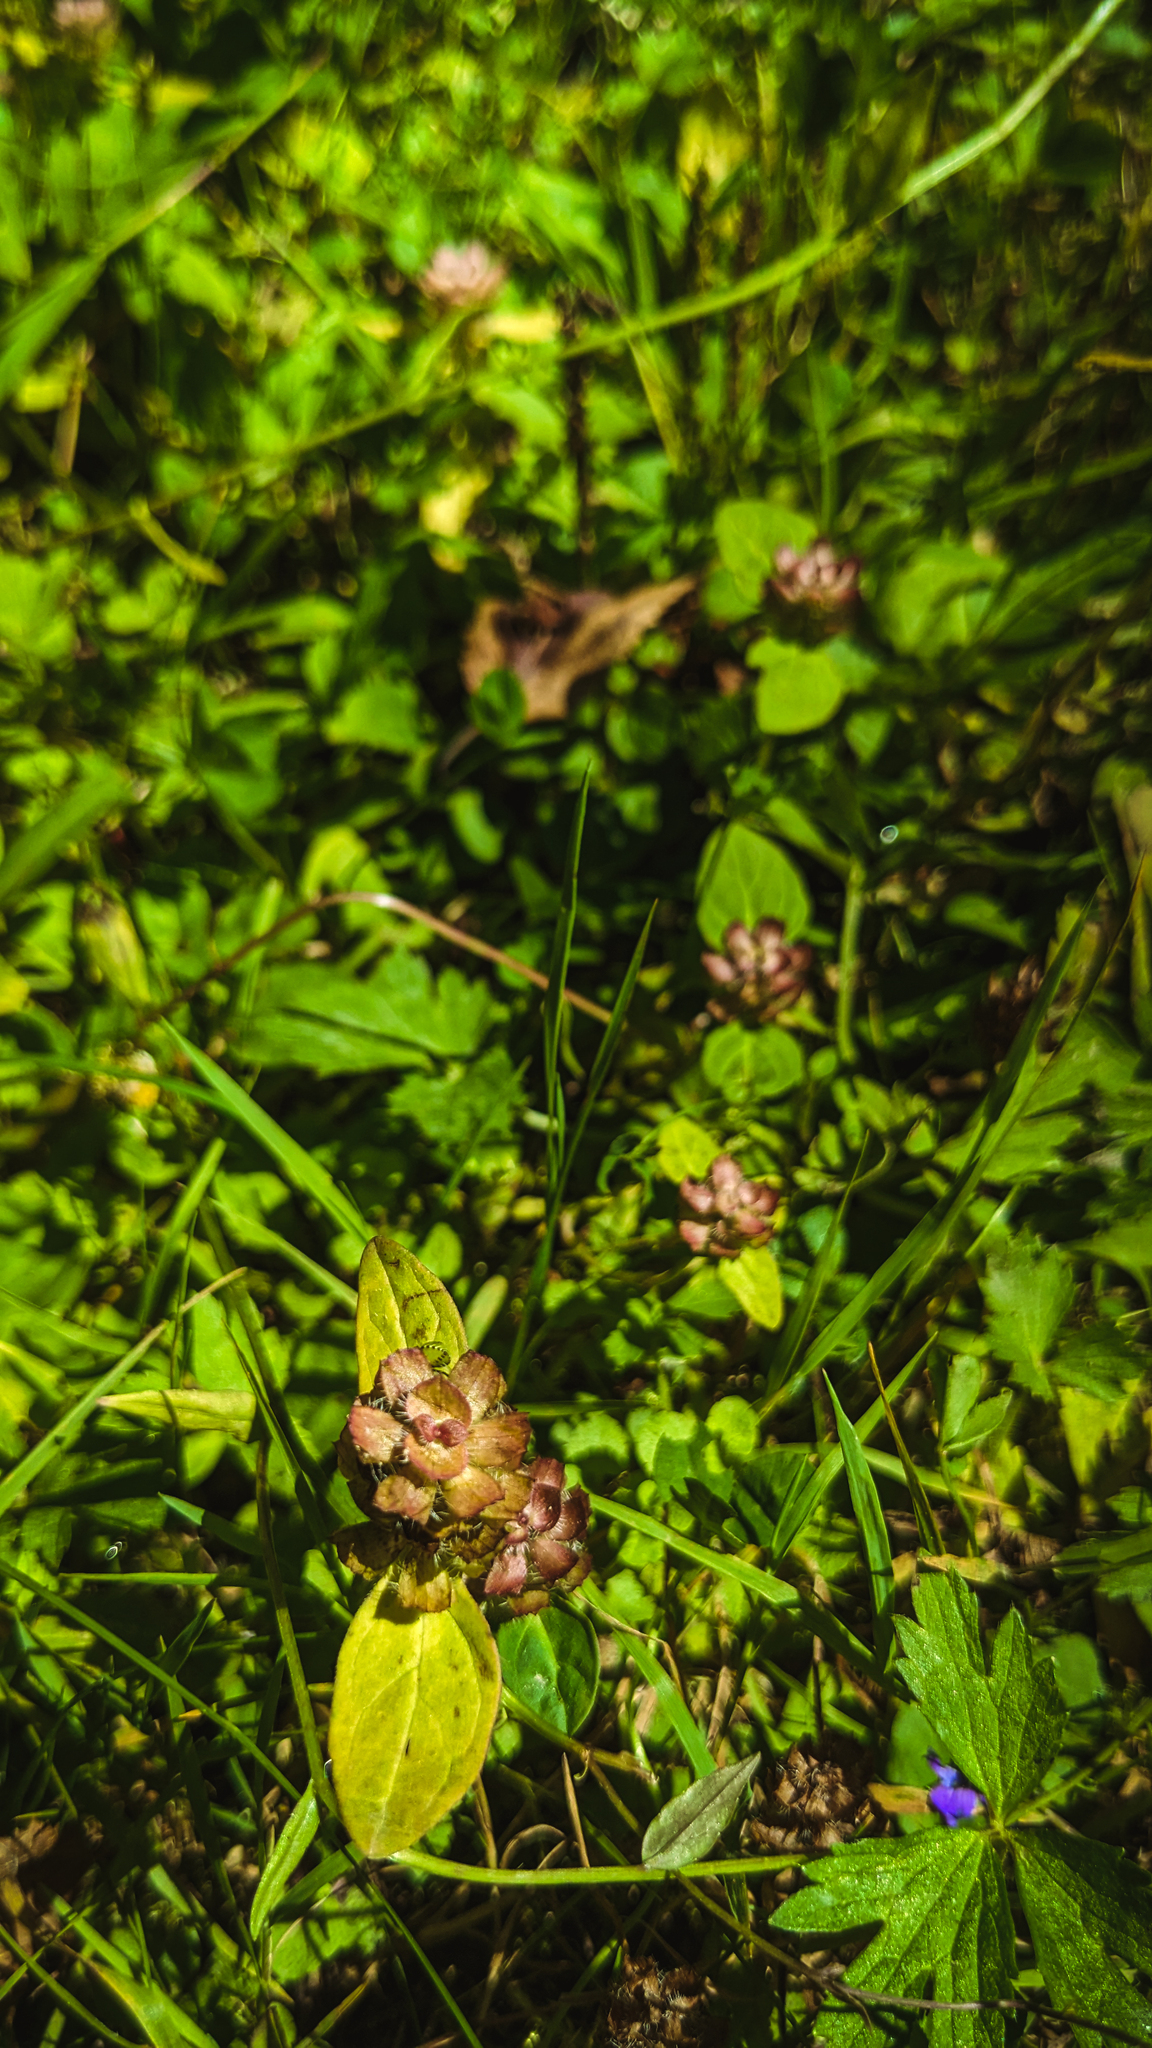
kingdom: Plantae
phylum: Tracheophyta
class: Magnoliopsida
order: Lamiales
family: Lamiaceae
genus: Prunella
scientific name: Prunella vulgaris
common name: Heal-all
